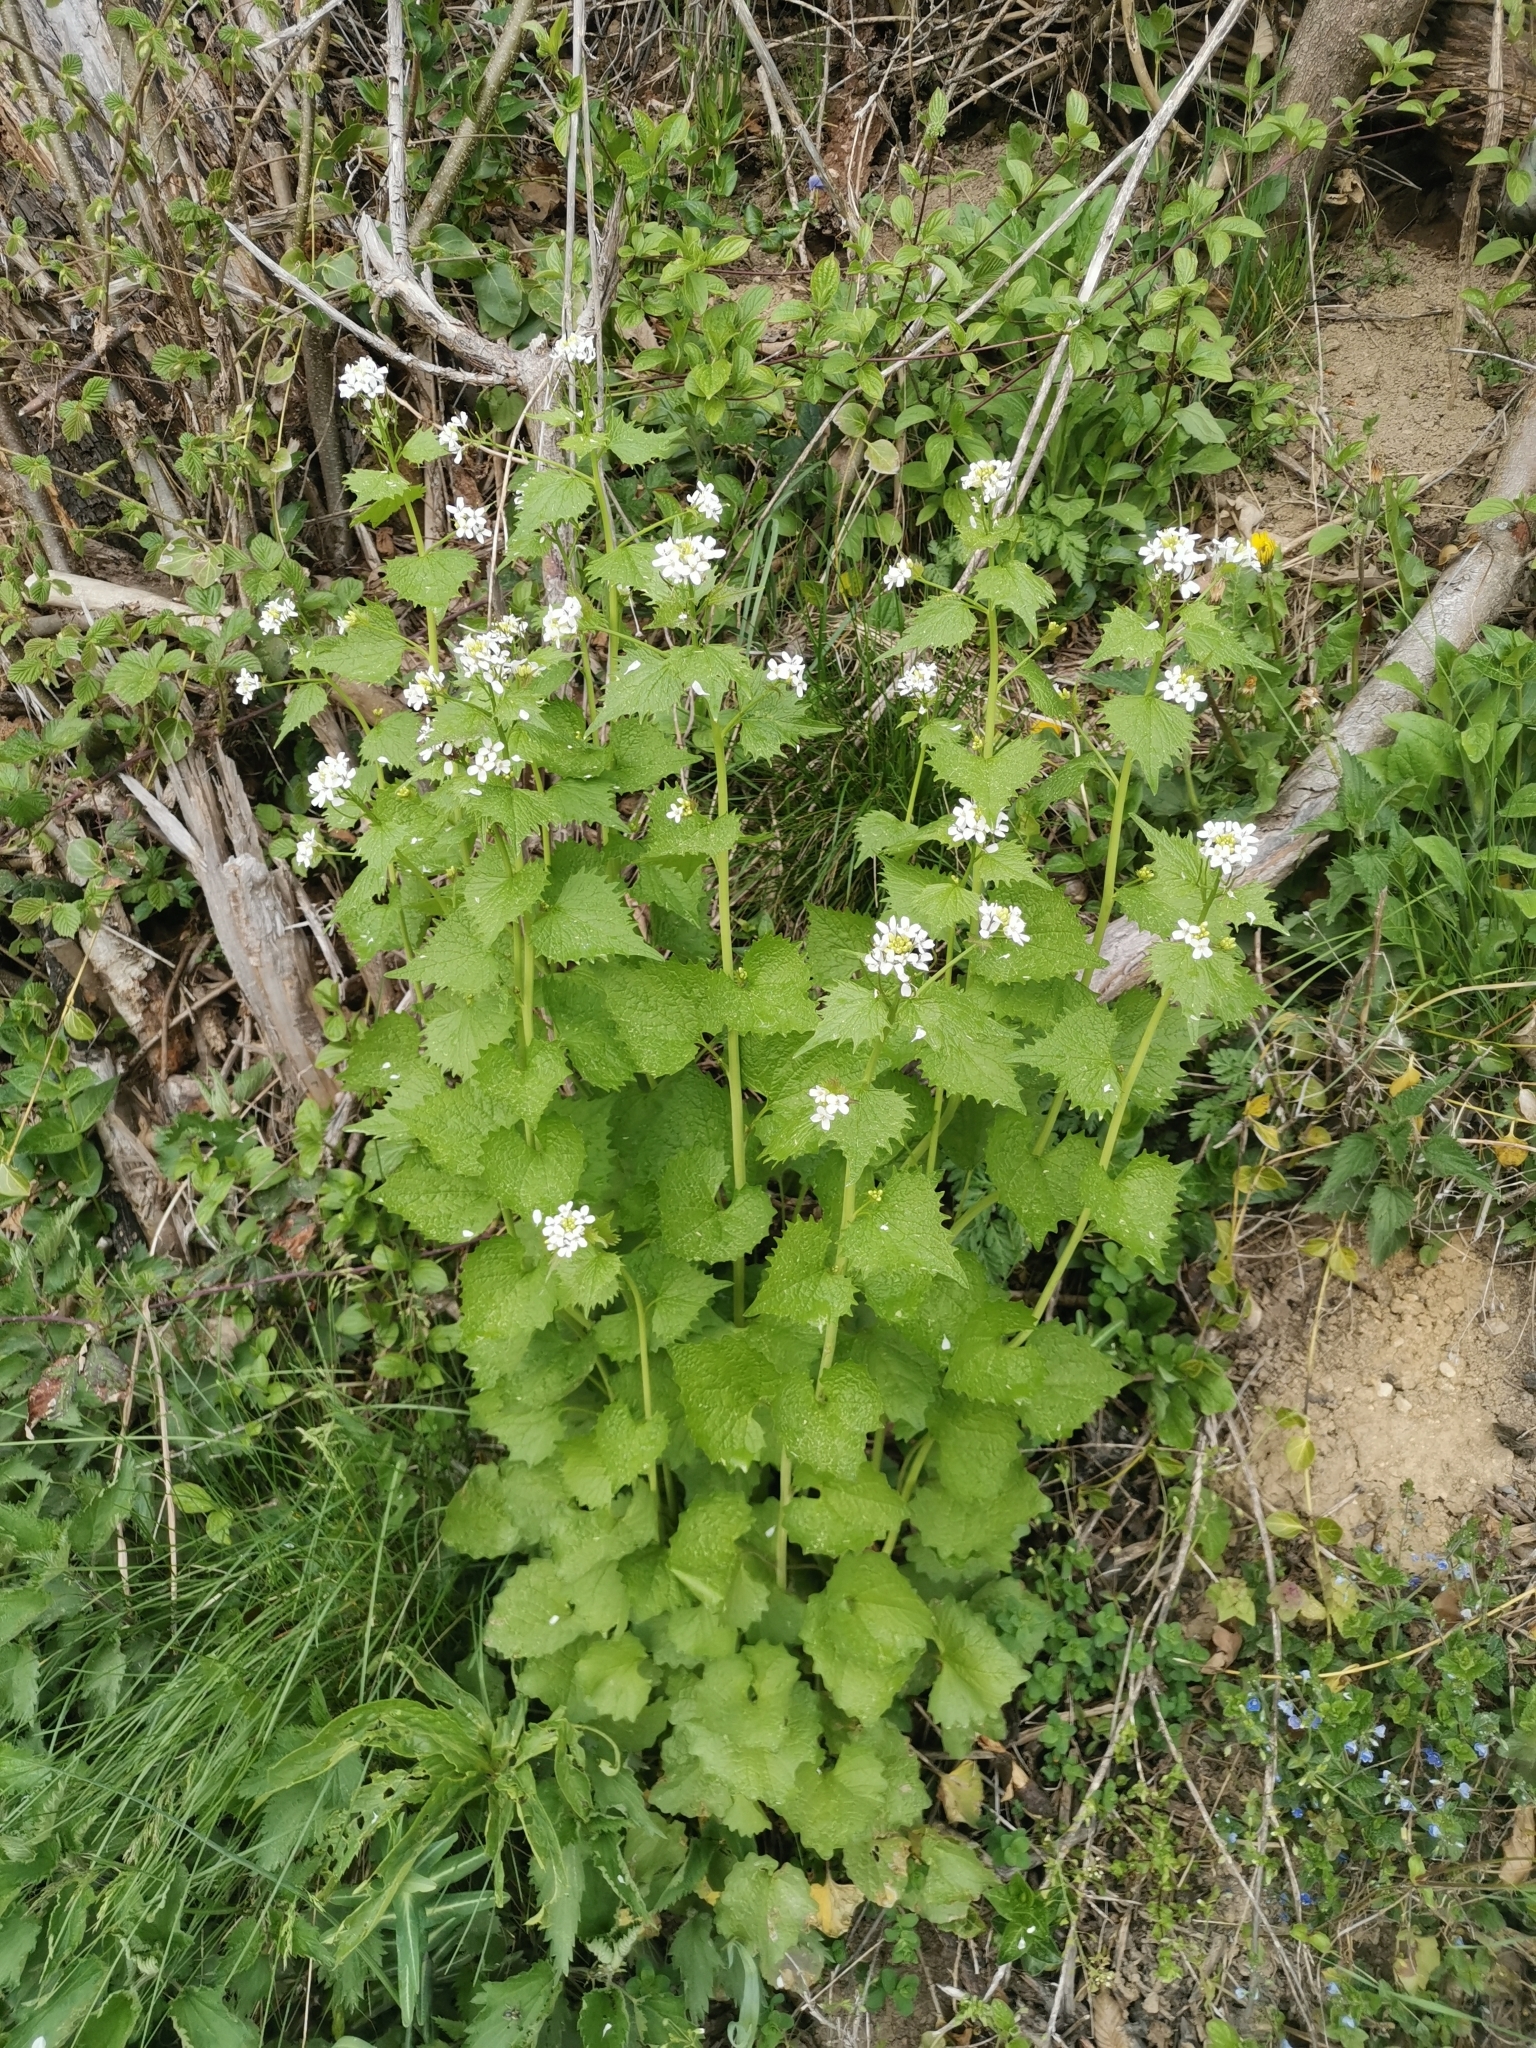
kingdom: Plantae
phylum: Tracheophyta
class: Magnoliopsida
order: Brassicales
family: Brassicaceae
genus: Alliaria
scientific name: Alliaria petiolata
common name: Garlic mustard
